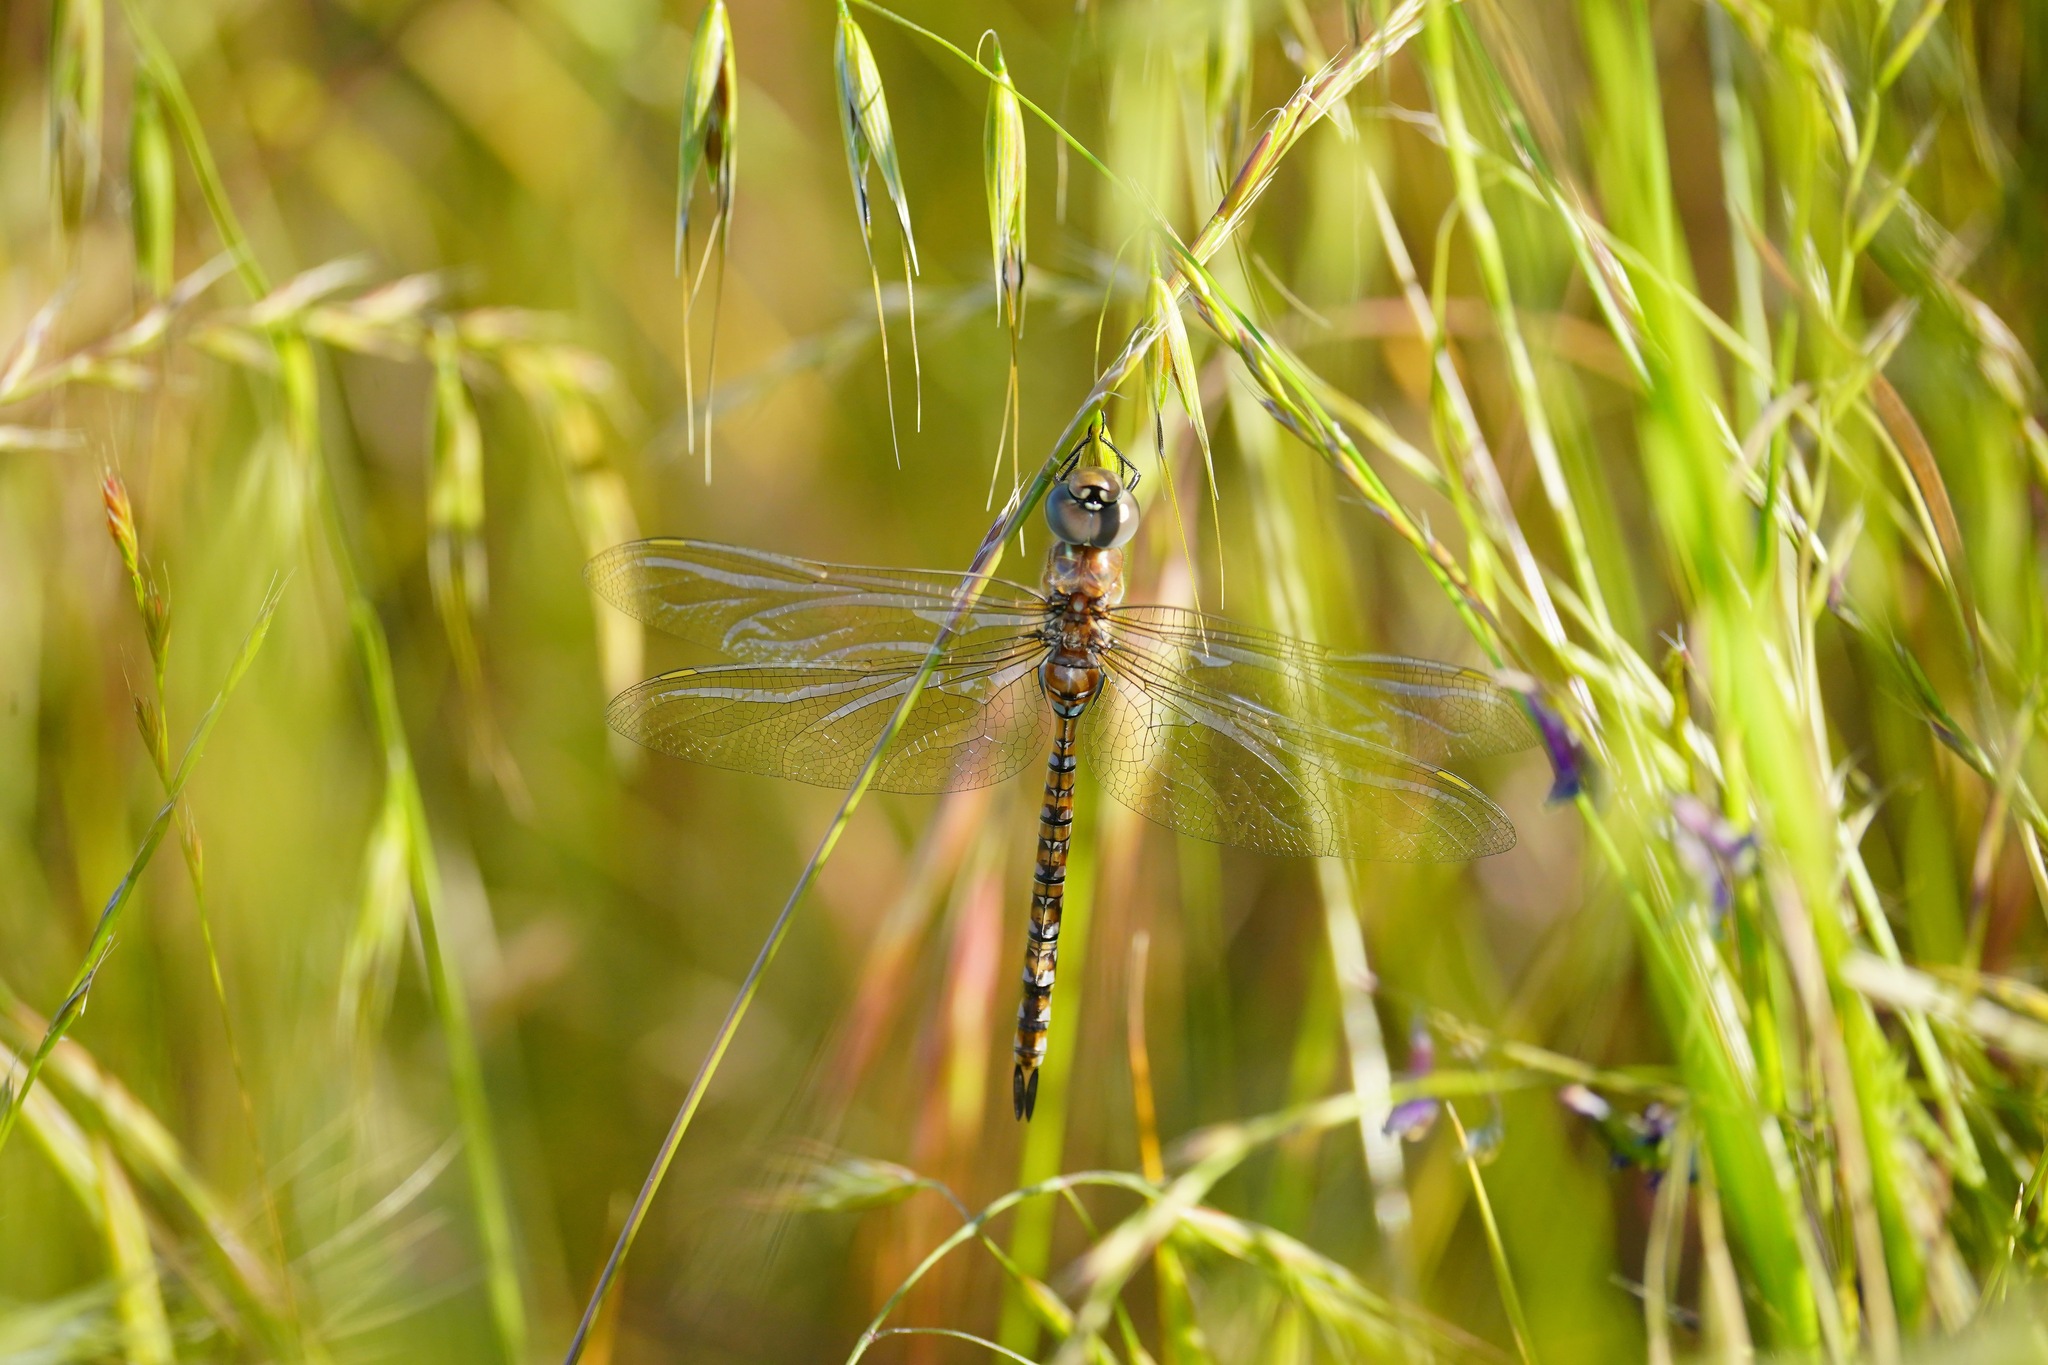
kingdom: Animalia
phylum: Arthropoda
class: Insecta
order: Odonata
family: Aeshnidae
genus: Rhionaeschna
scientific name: Rhionaeschna multicolor
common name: Blue-eyed darner
